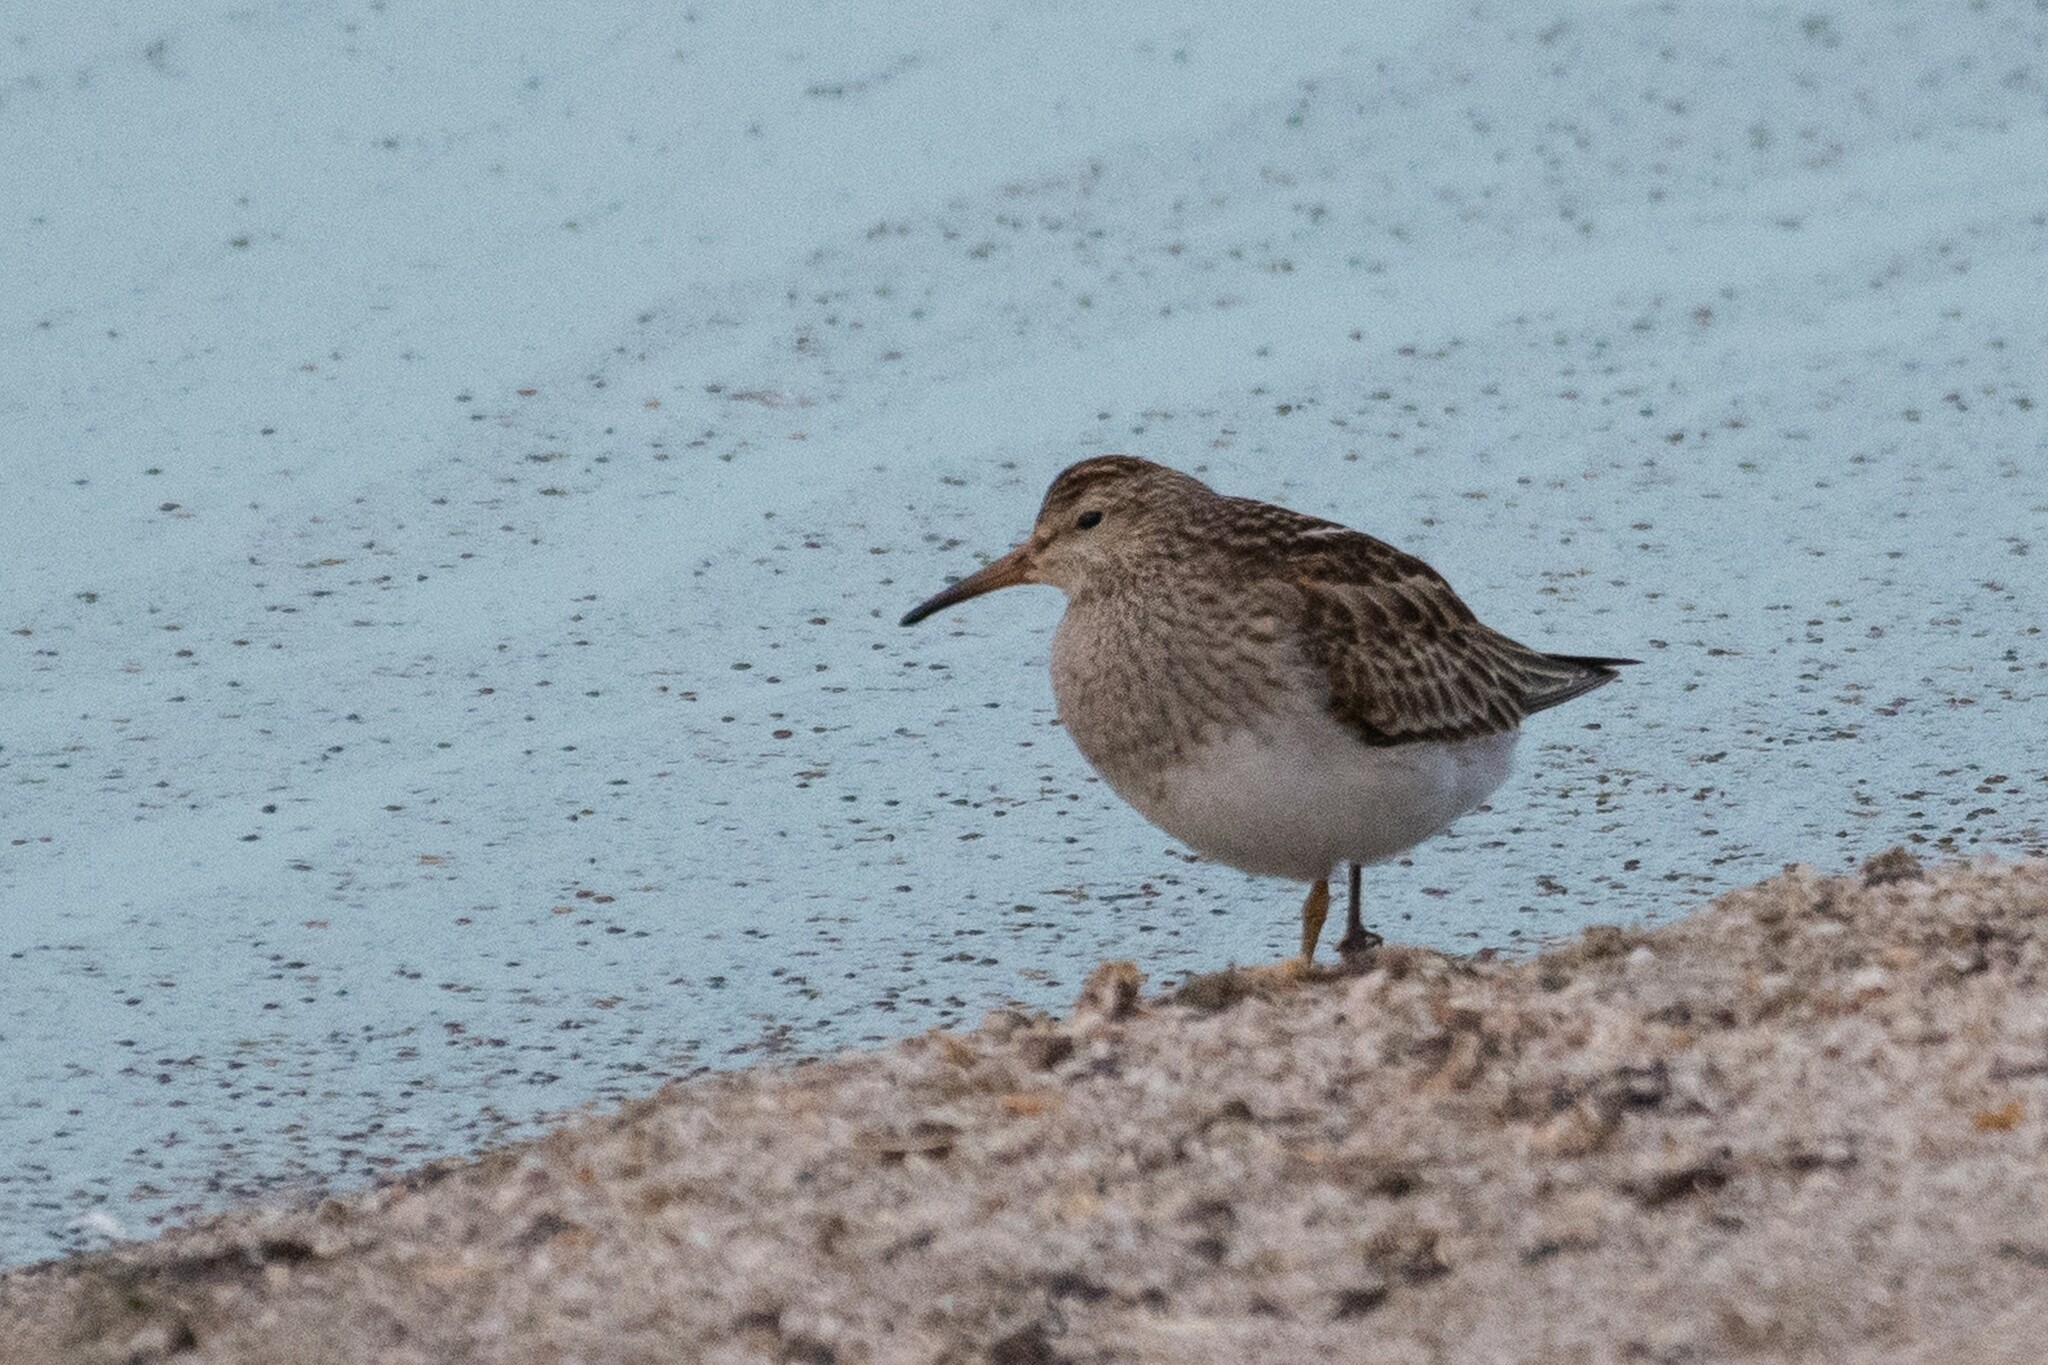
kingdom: Animalia
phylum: Chordata
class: Aves
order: Charadriiformes
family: Scolopacidae
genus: Calidris
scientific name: Calidris melanotos
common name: Pectoral sandpiper
